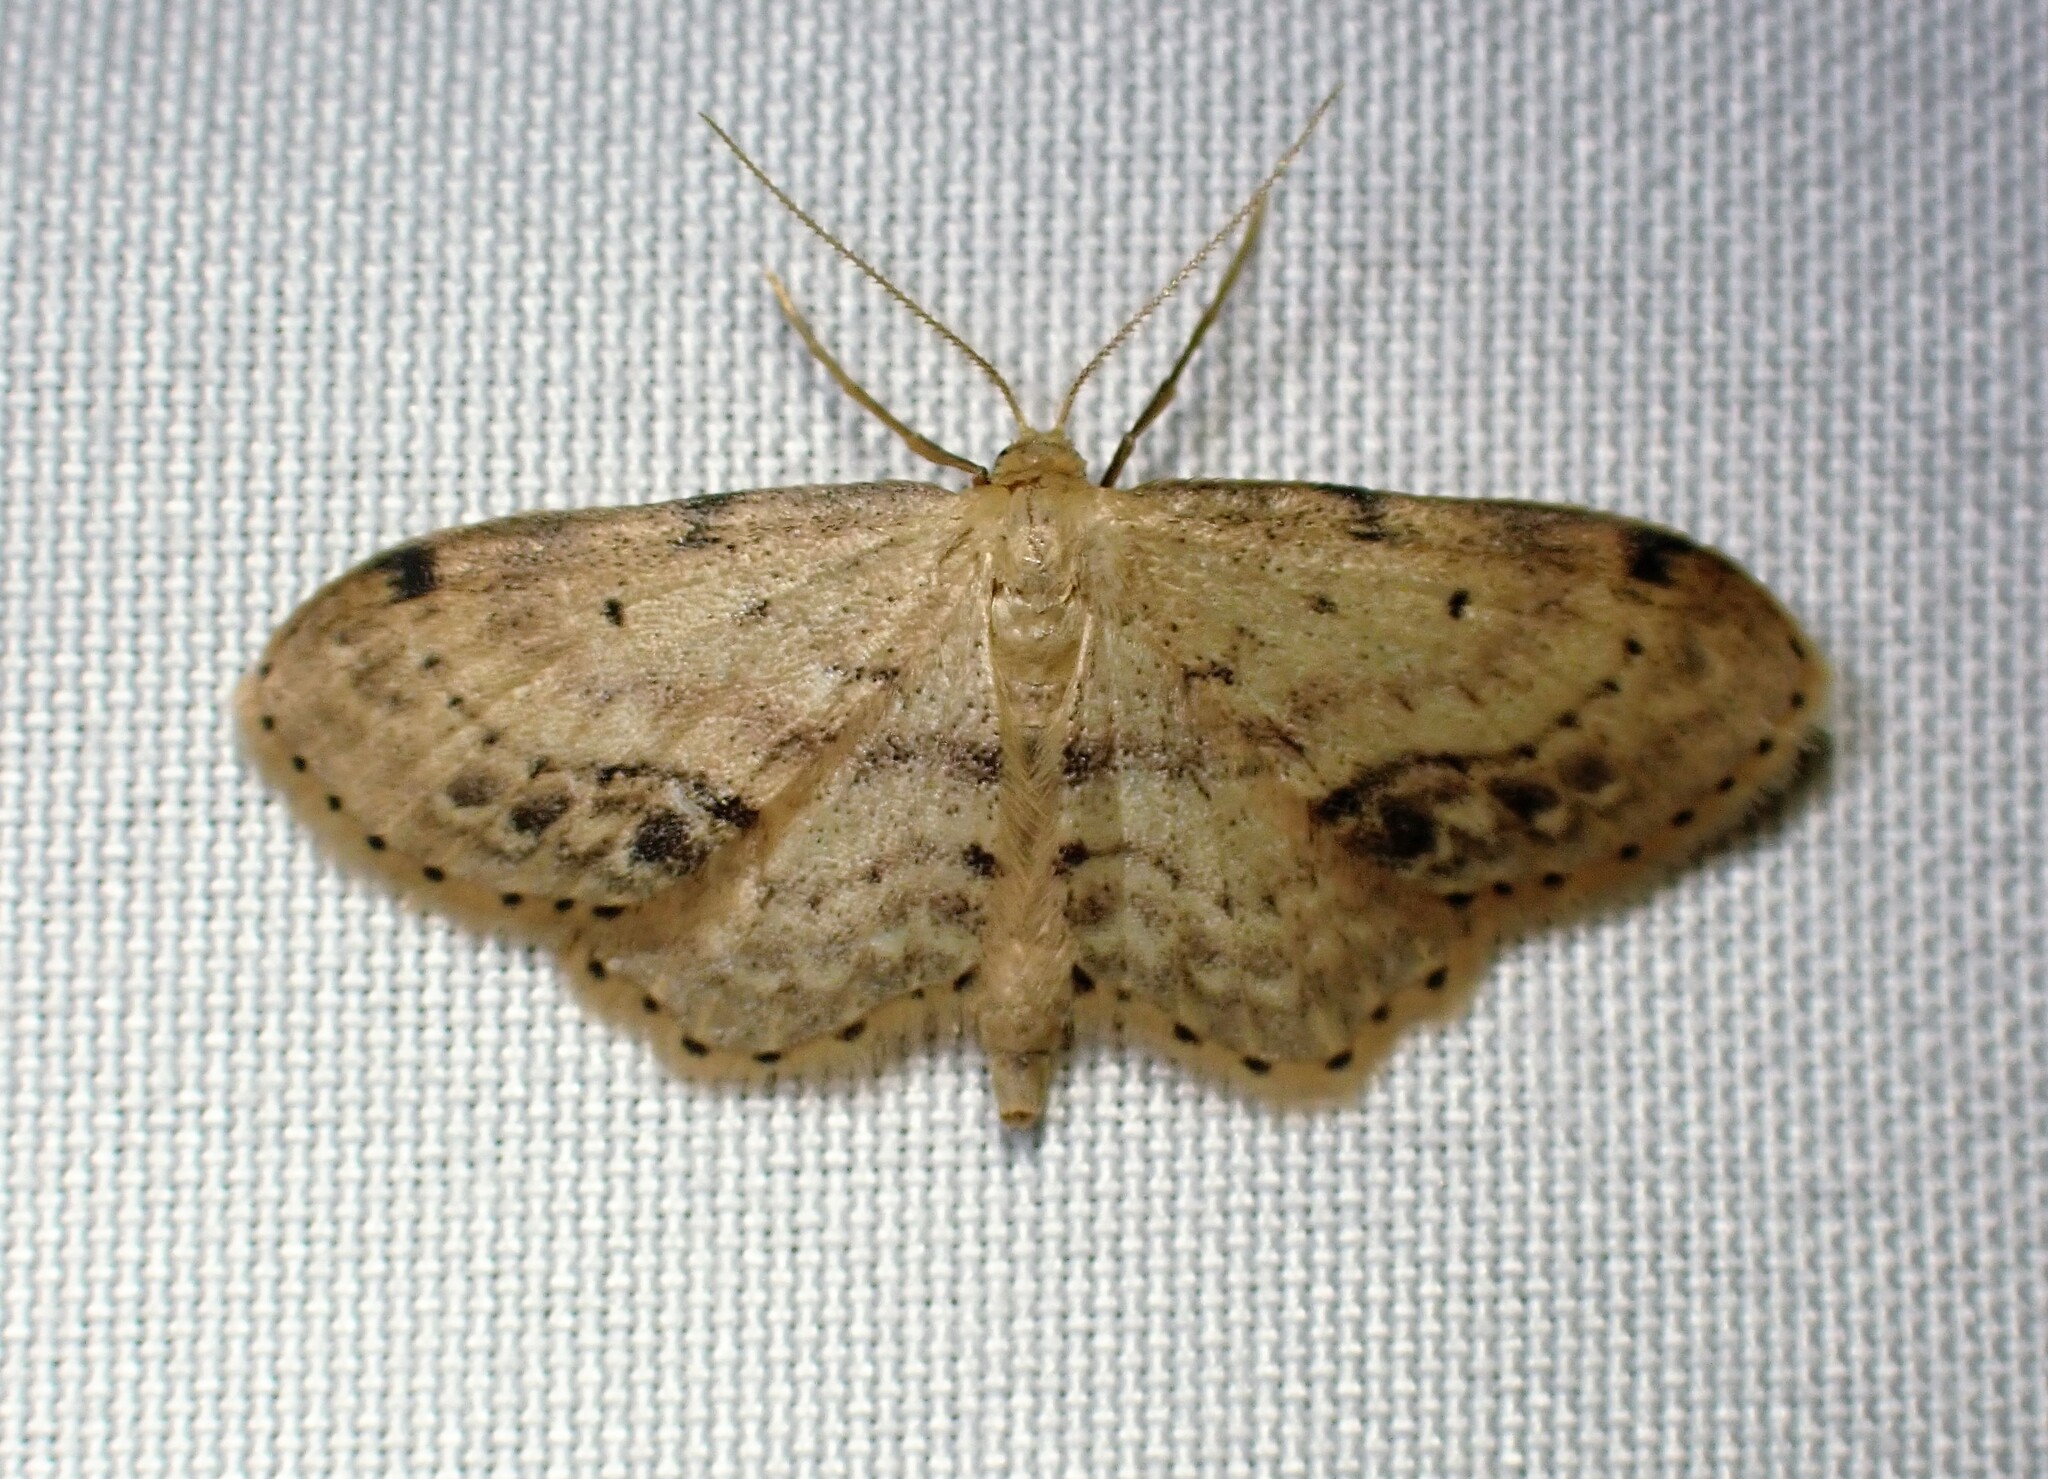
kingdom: Animalia
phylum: Arthropoda
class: Insecta
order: Lepidoptera
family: Geometridae
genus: Idaea
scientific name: Idaea dimidiata
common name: Single-dotted wave
